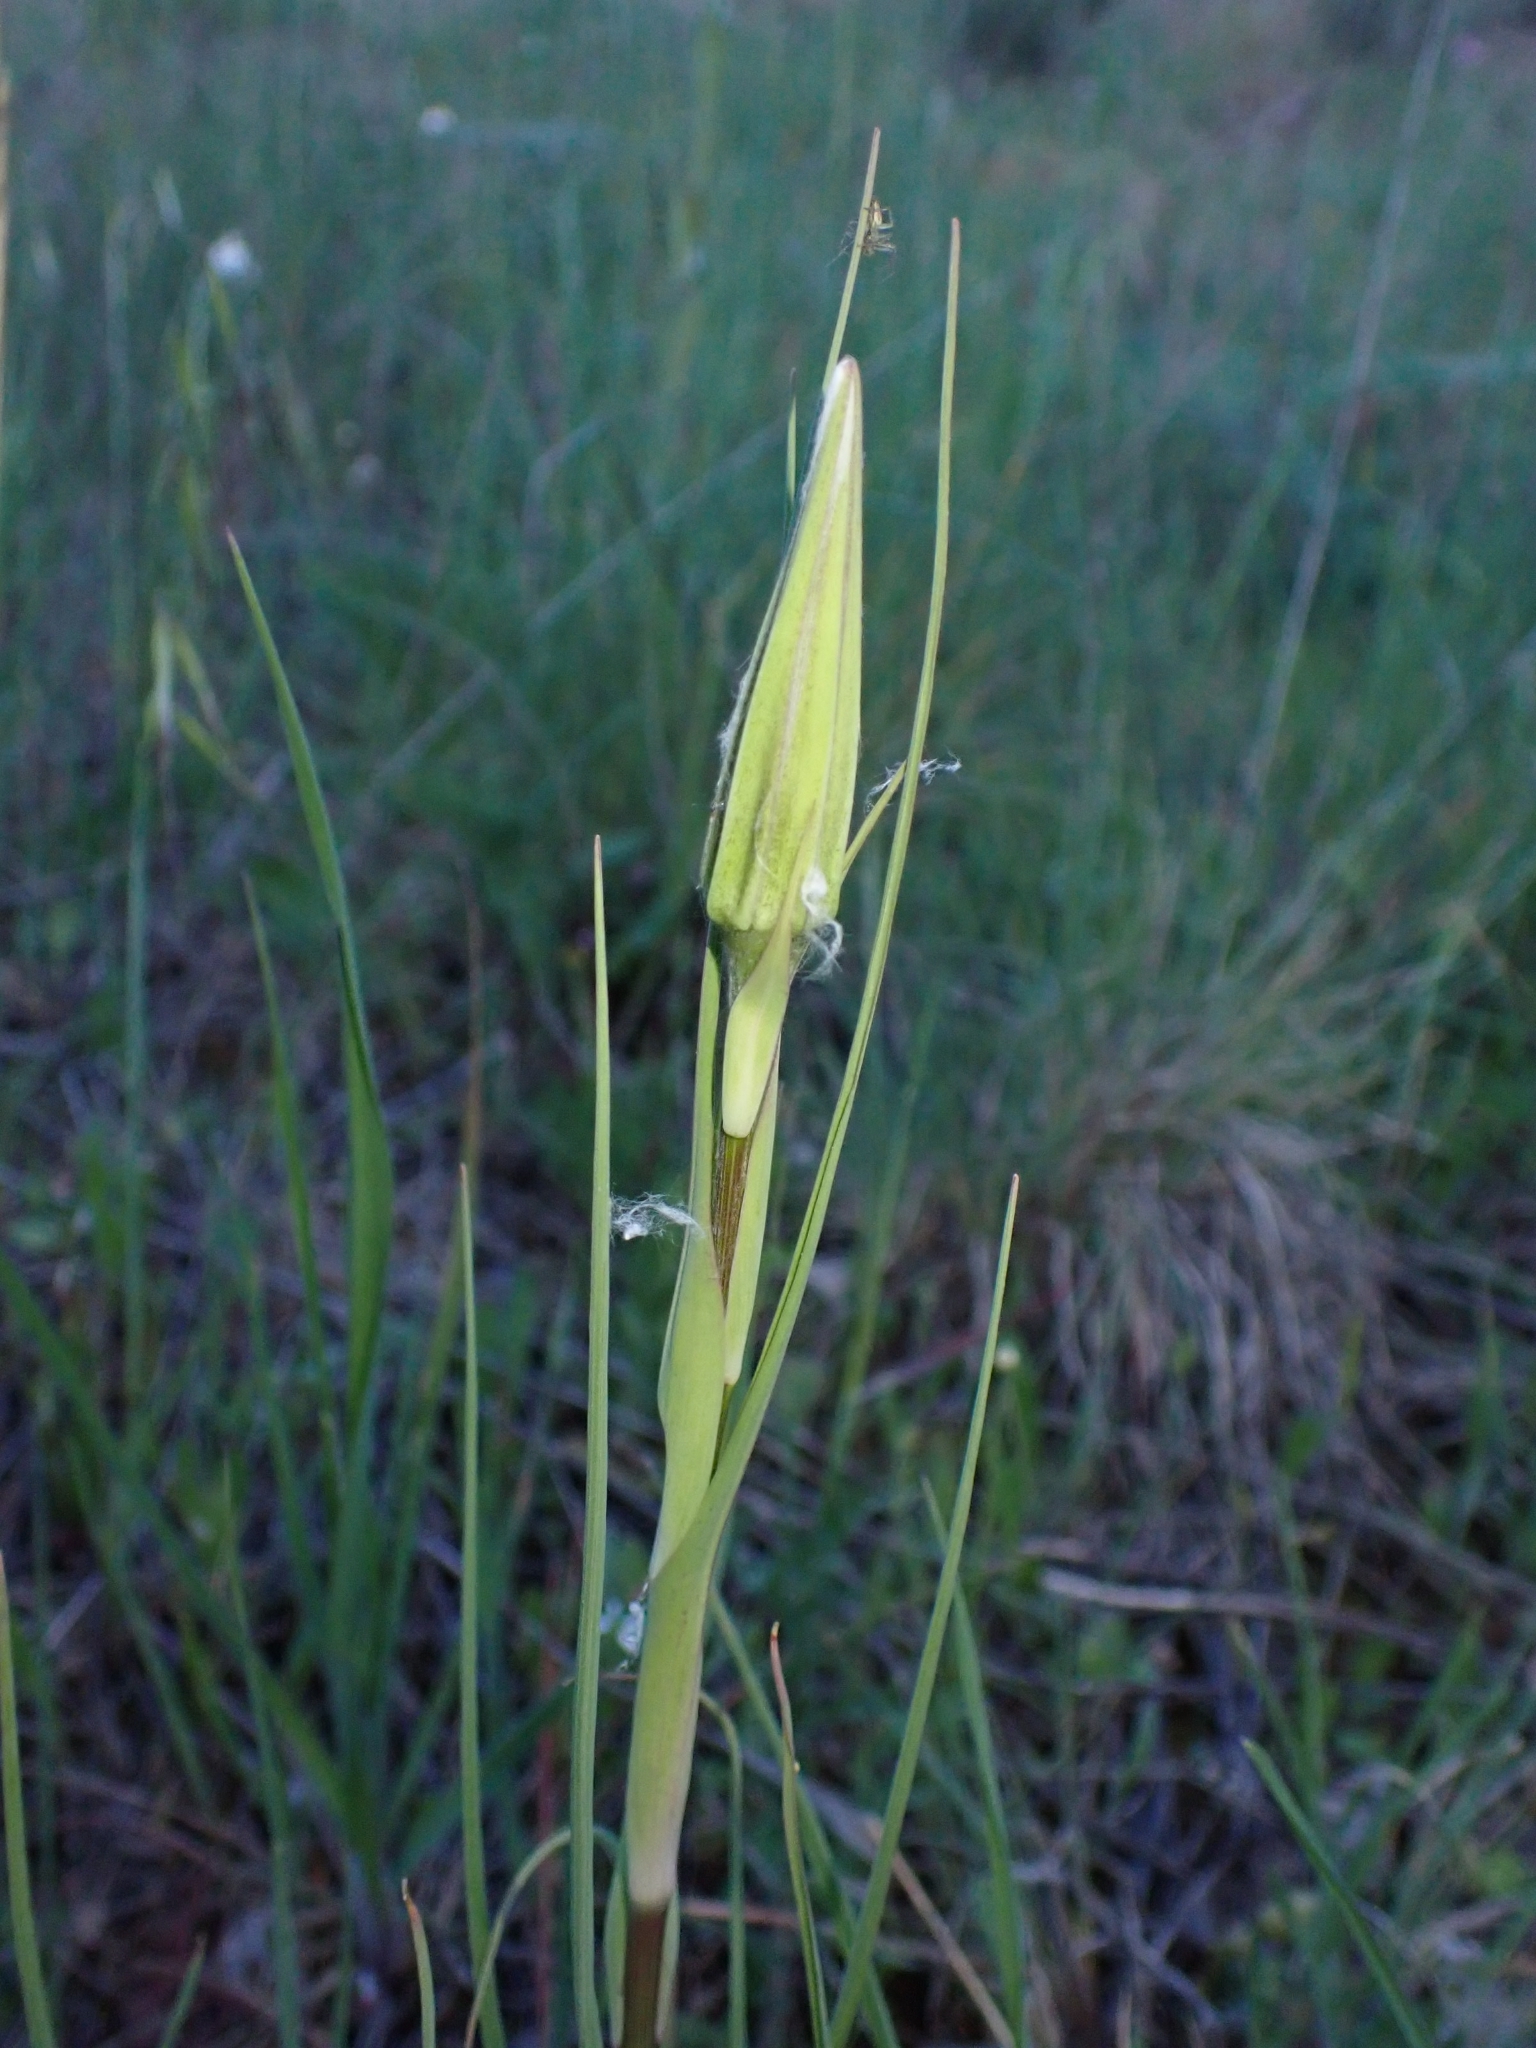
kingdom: Plantae
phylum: Tracheophyta
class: Magnoliopsida
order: Asterales
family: Asteraceae
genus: Tragopogon
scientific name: Tragopogon porrifolius
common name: Salsify
